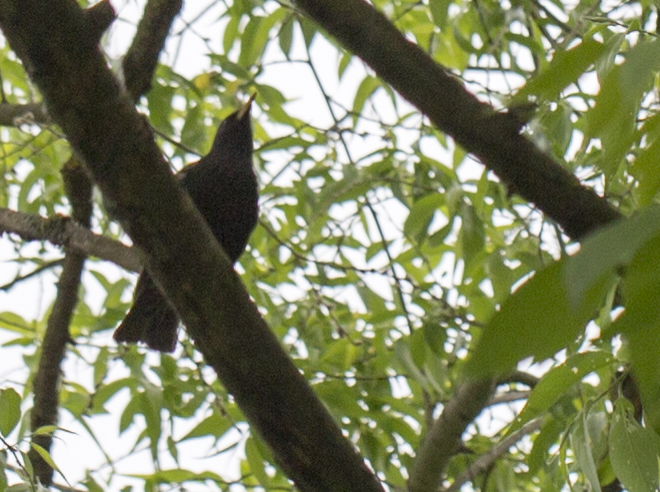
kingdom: Animalia
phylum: Chordata
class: Aves
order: Passeriformes
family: Sturnidae
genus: Sturnus
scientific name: Sturnus vulgaris
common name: Common starling
